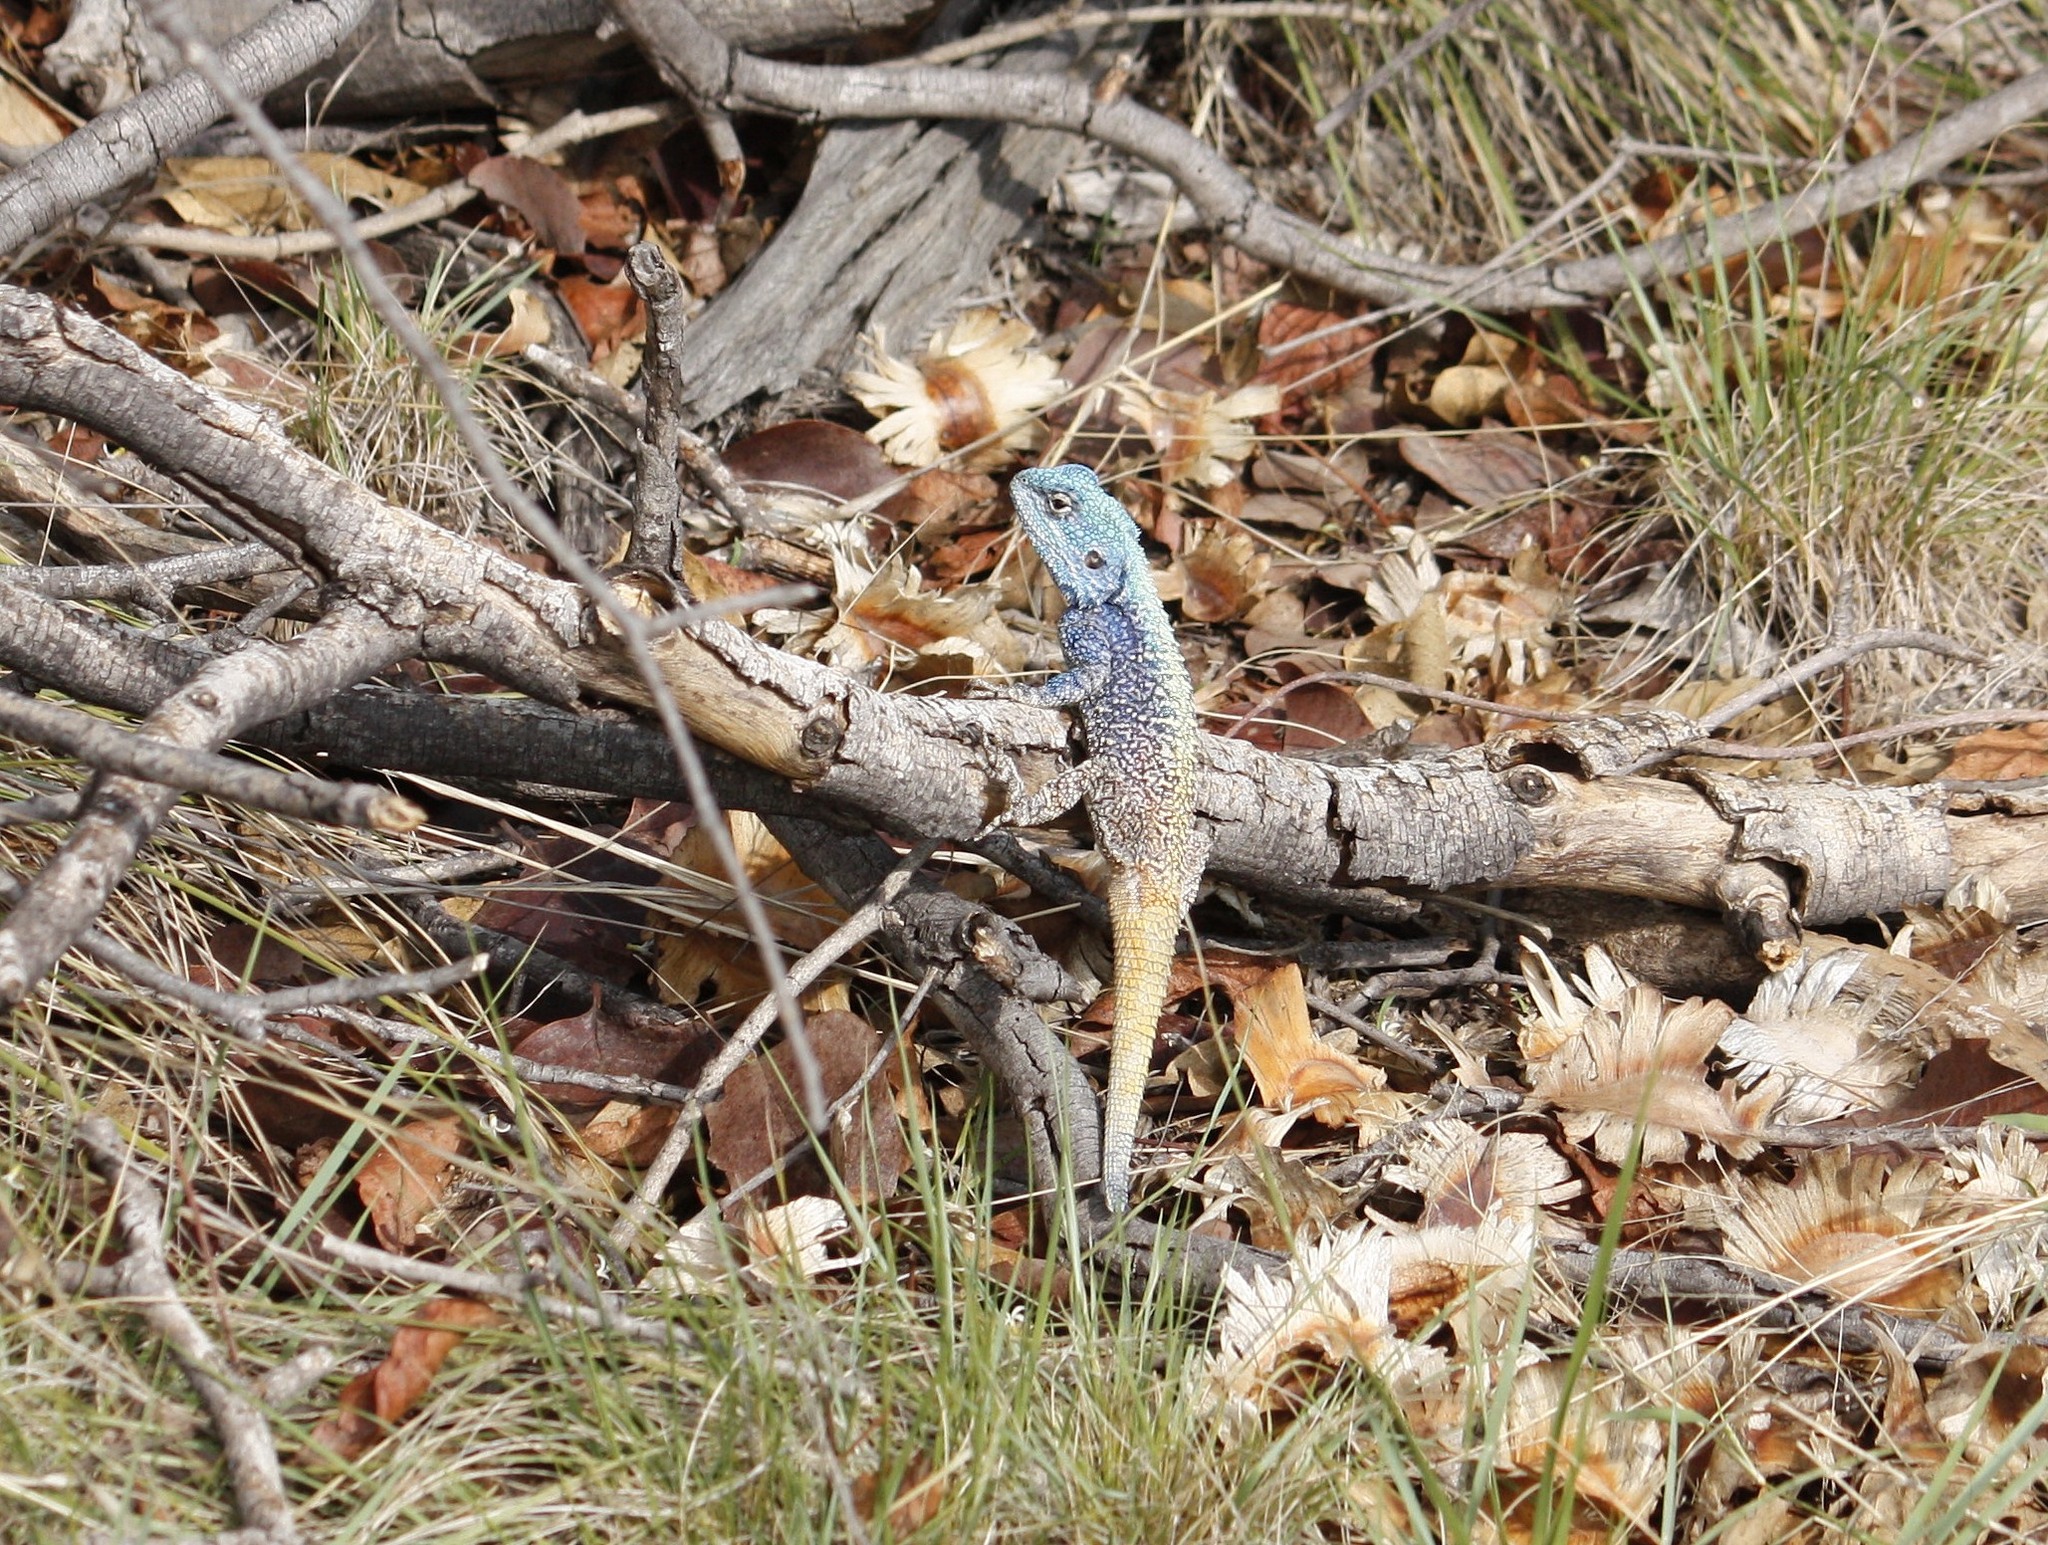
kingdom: Animalia
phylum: Chordata
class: Squamata
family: Agamidae
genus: Acanthocercus
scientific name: Acanthocercus atricollis
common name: Southern tree agama
